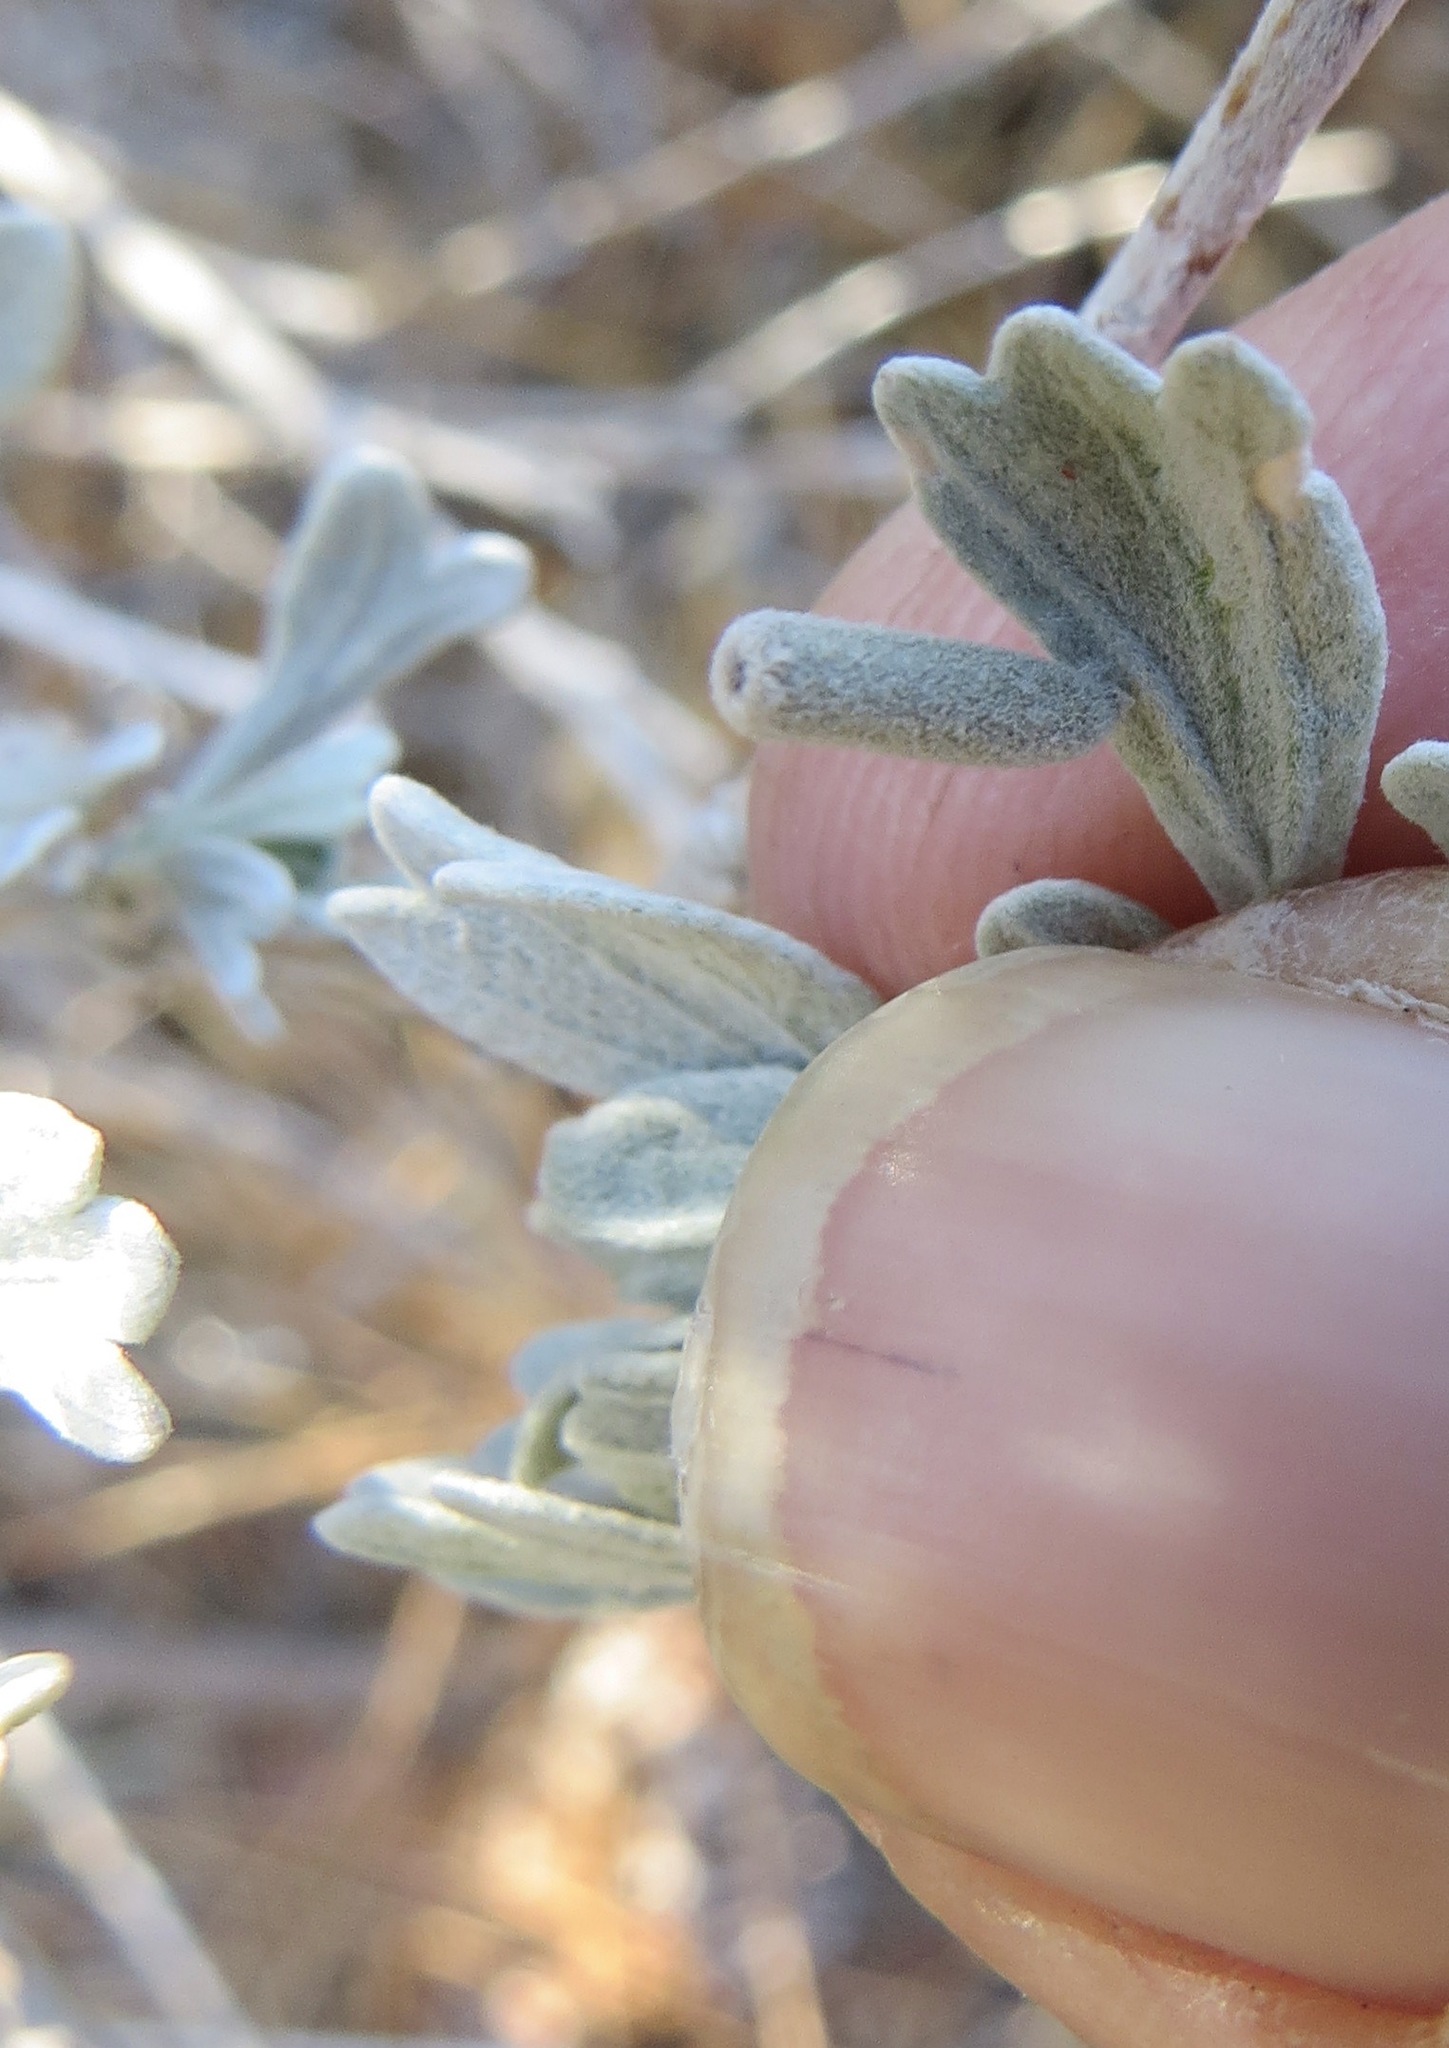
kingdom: Animalia
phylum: Arthropoda
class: Insecta
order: Diptera
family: Cecidomyiidae
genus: Rhopalomyia
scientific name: Rhopalomyia tubulus
